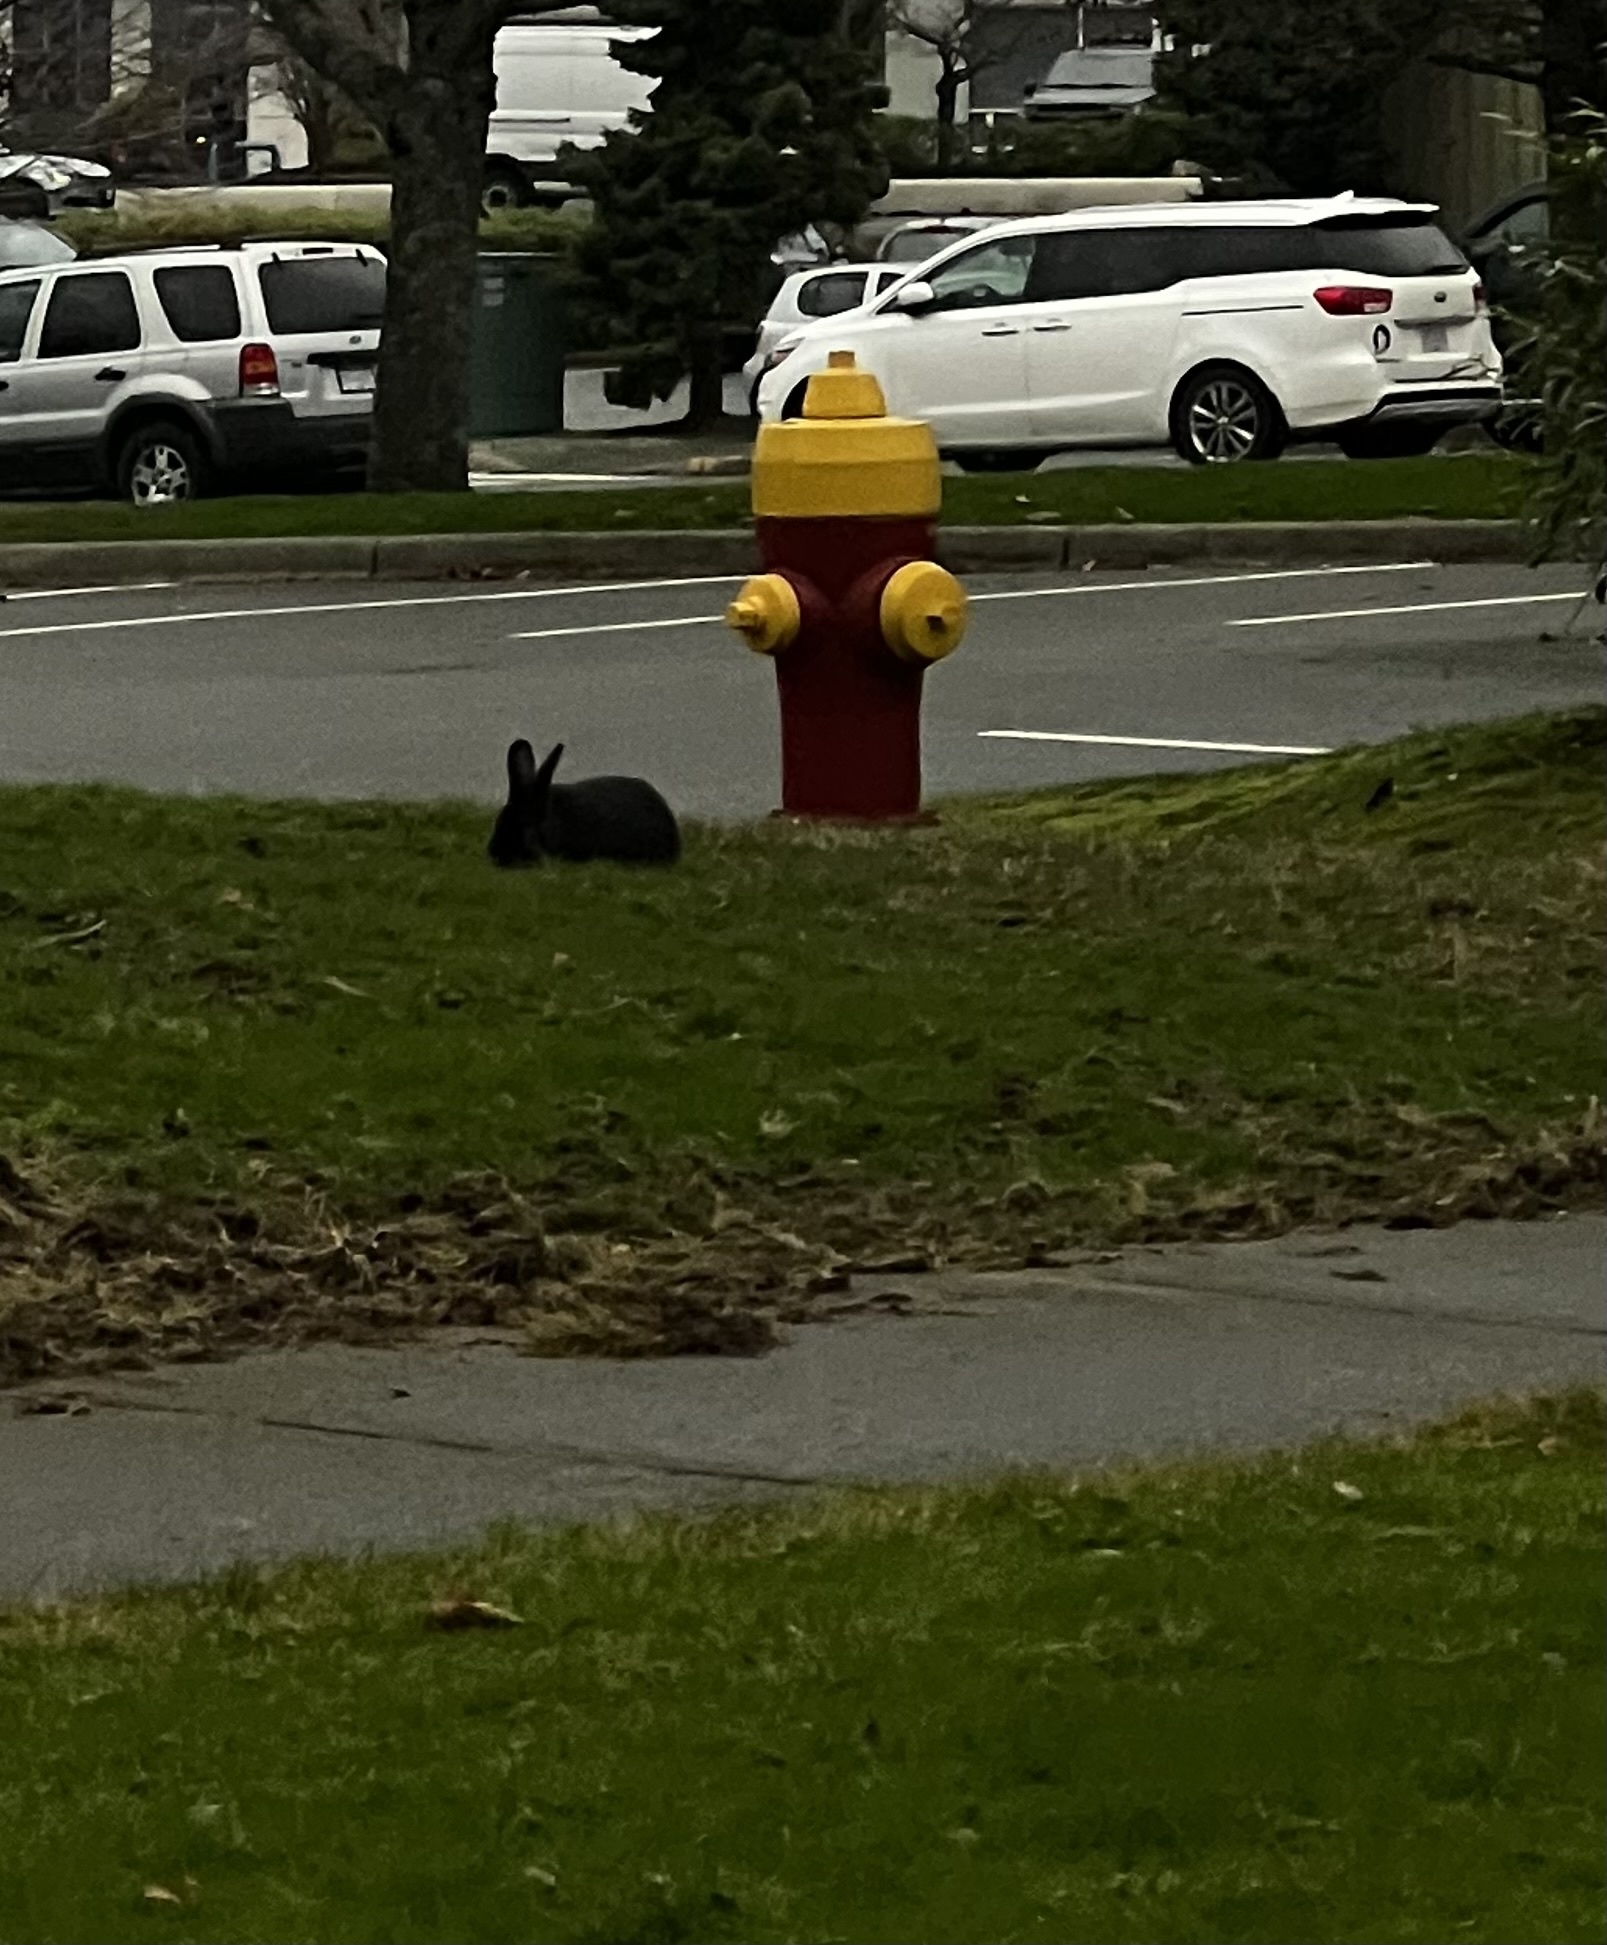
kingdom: Animalia
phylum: Chordata
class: Mammalia
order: Lagomorpha
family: Leporidae
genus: Oryctolagus
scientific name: Oryctolagus cuniculus
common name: European rabbit
